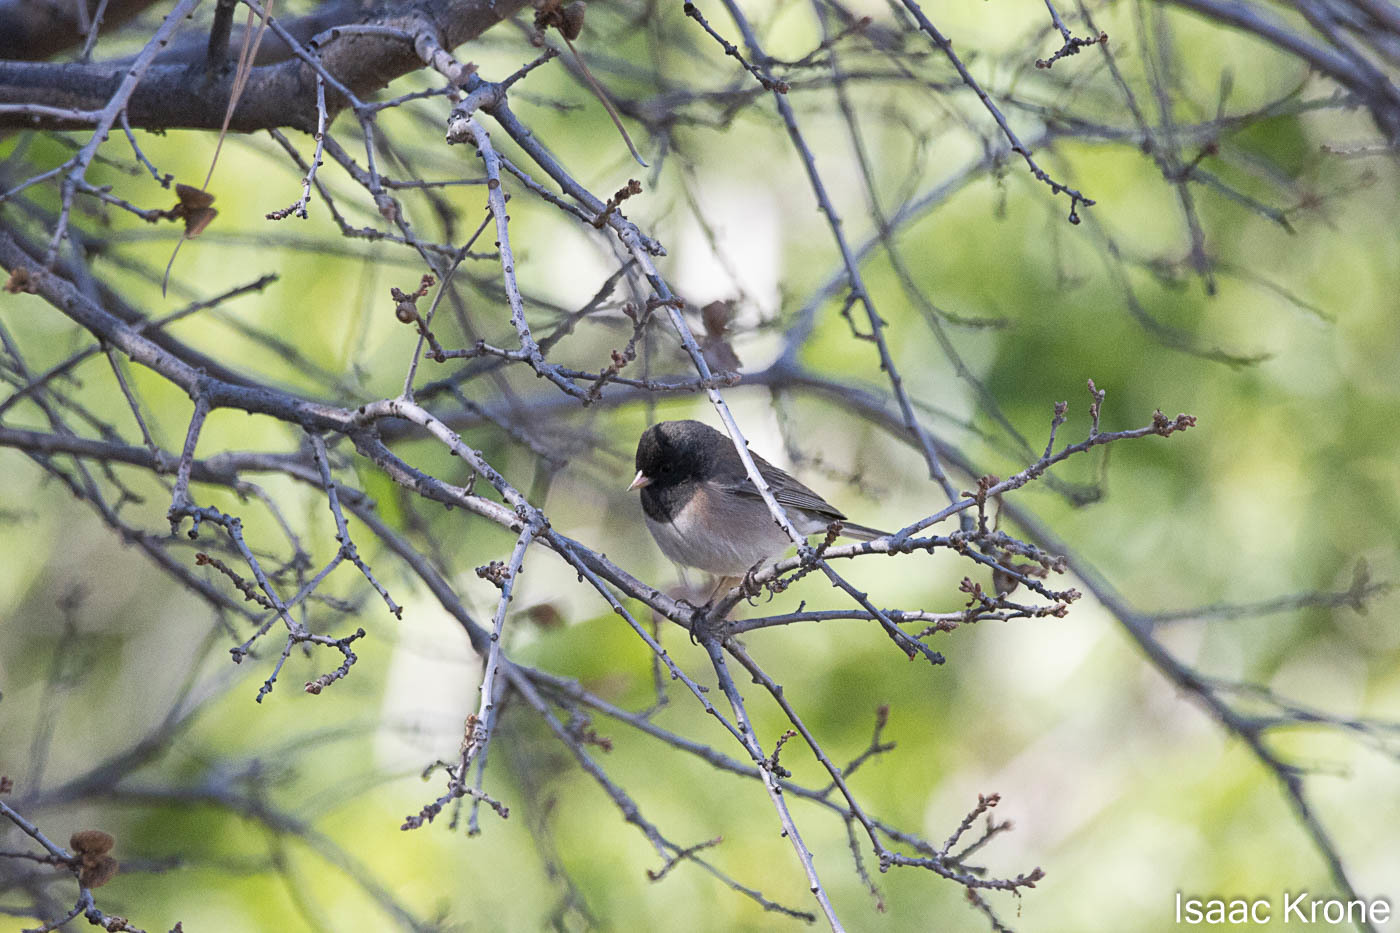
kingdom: Animalia
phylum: Chordata
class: Aves
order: Passeriformes
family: Passerellidae
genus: Junco
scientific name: Junco hyemalis
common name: Dark-eyed junco
